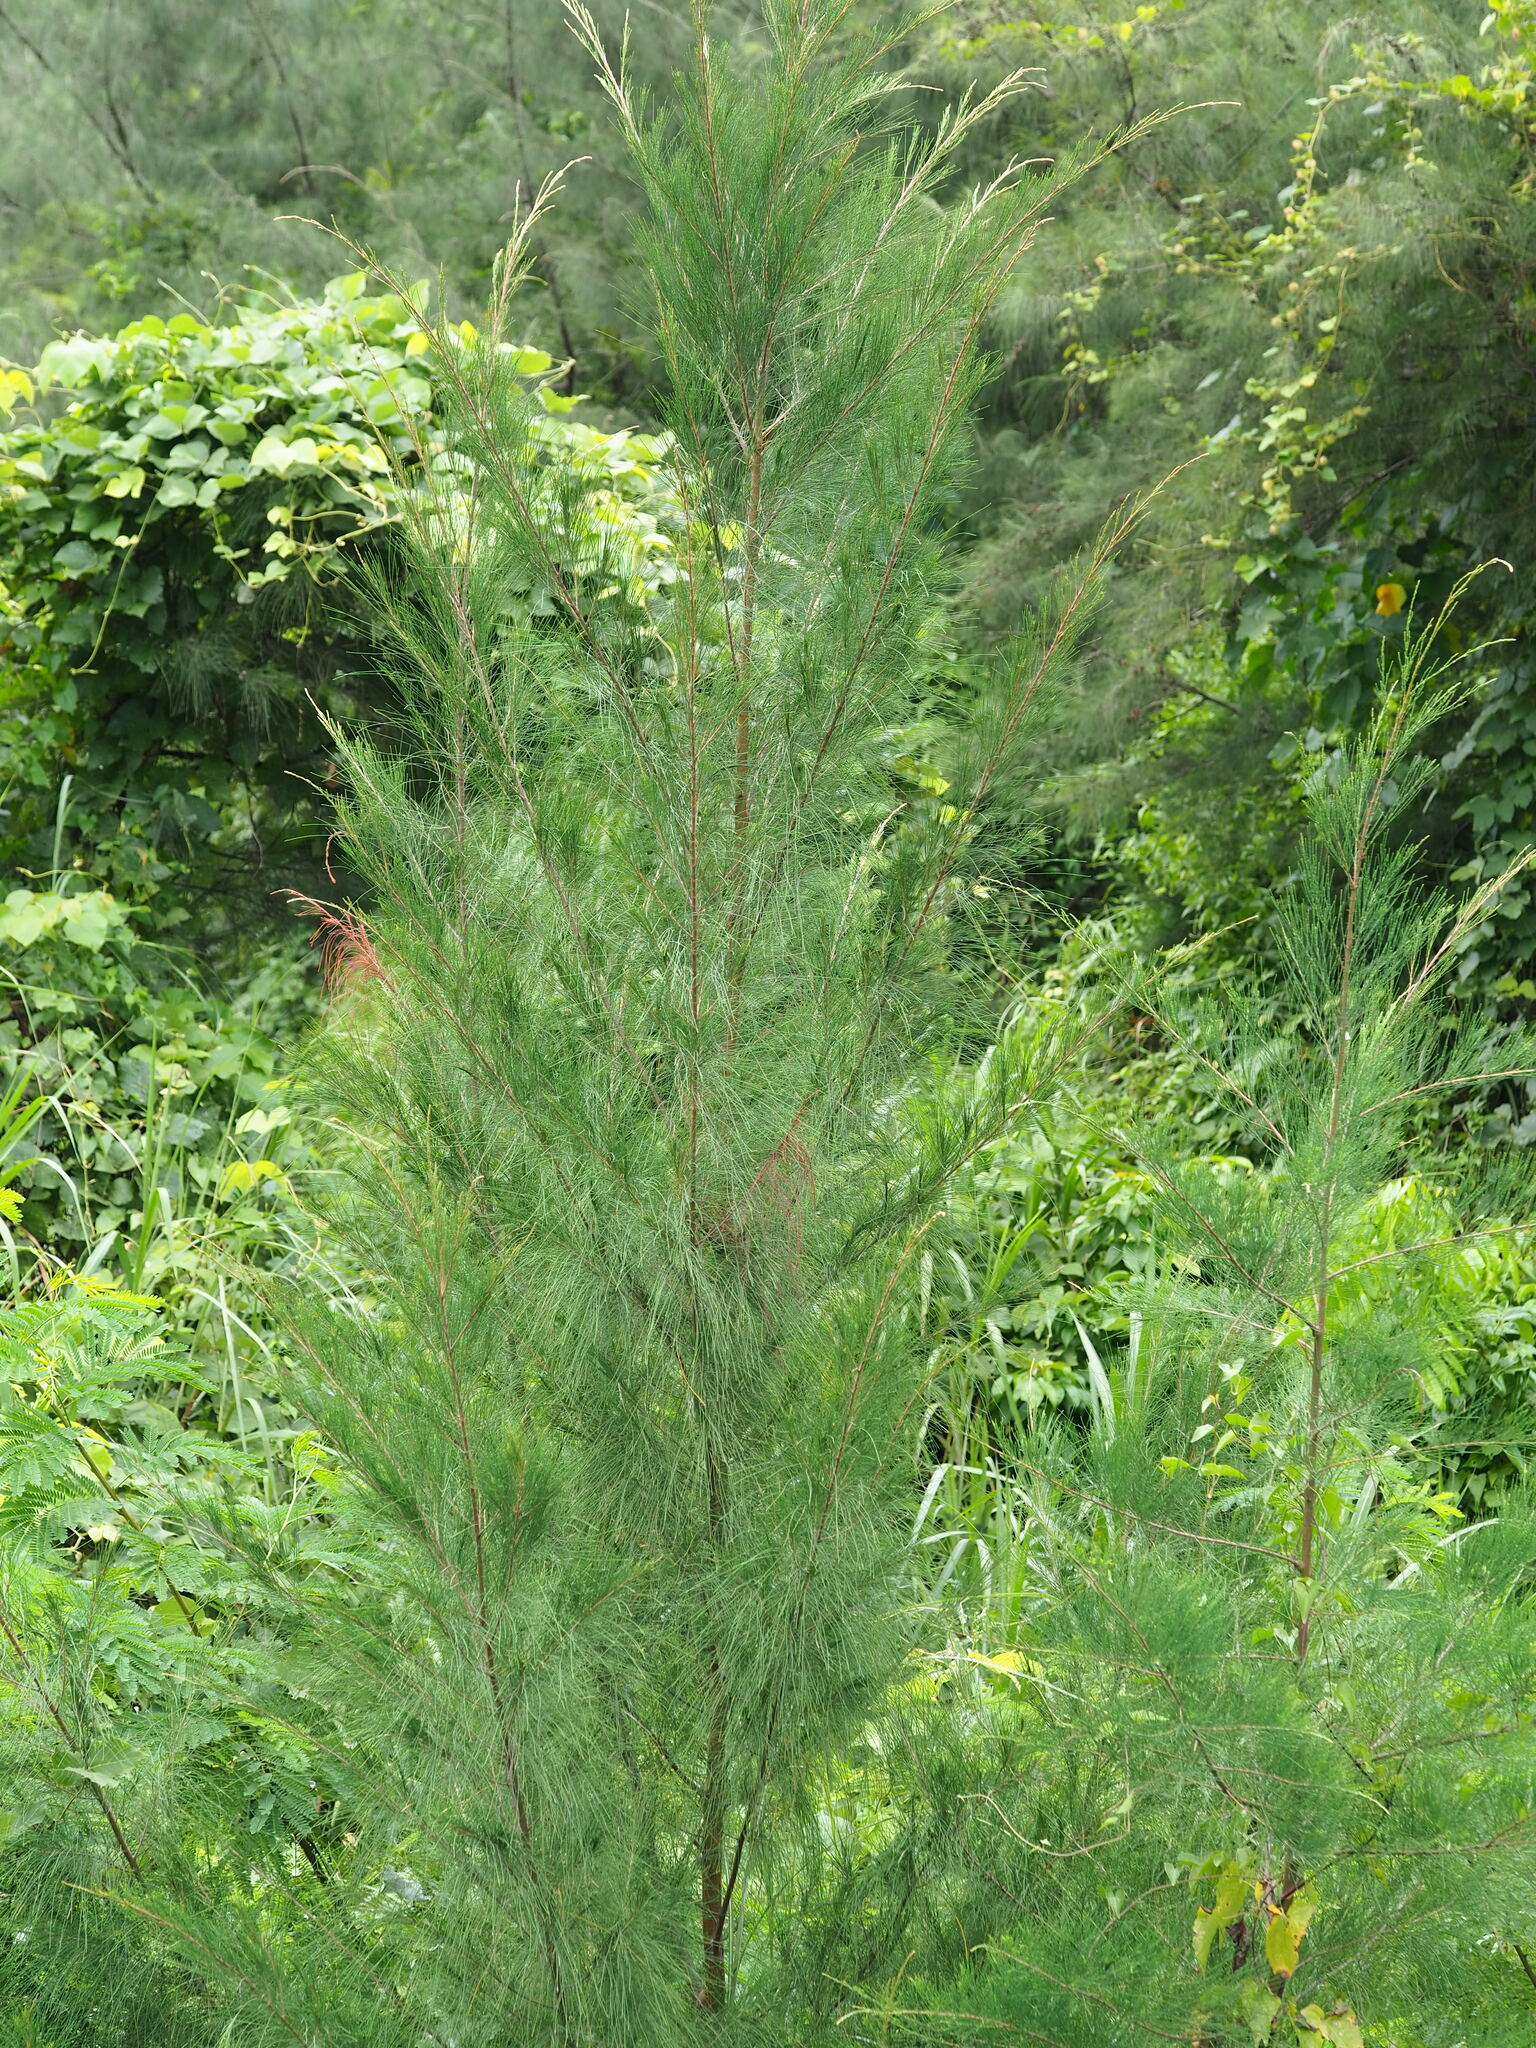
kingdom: Plantae
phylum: Tracheophyta
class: Magnoliopsida
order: Fagales
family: Casuarinaceae
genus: Casuarina
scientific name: Casuarina equisetifolia
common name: Beach sheoak
